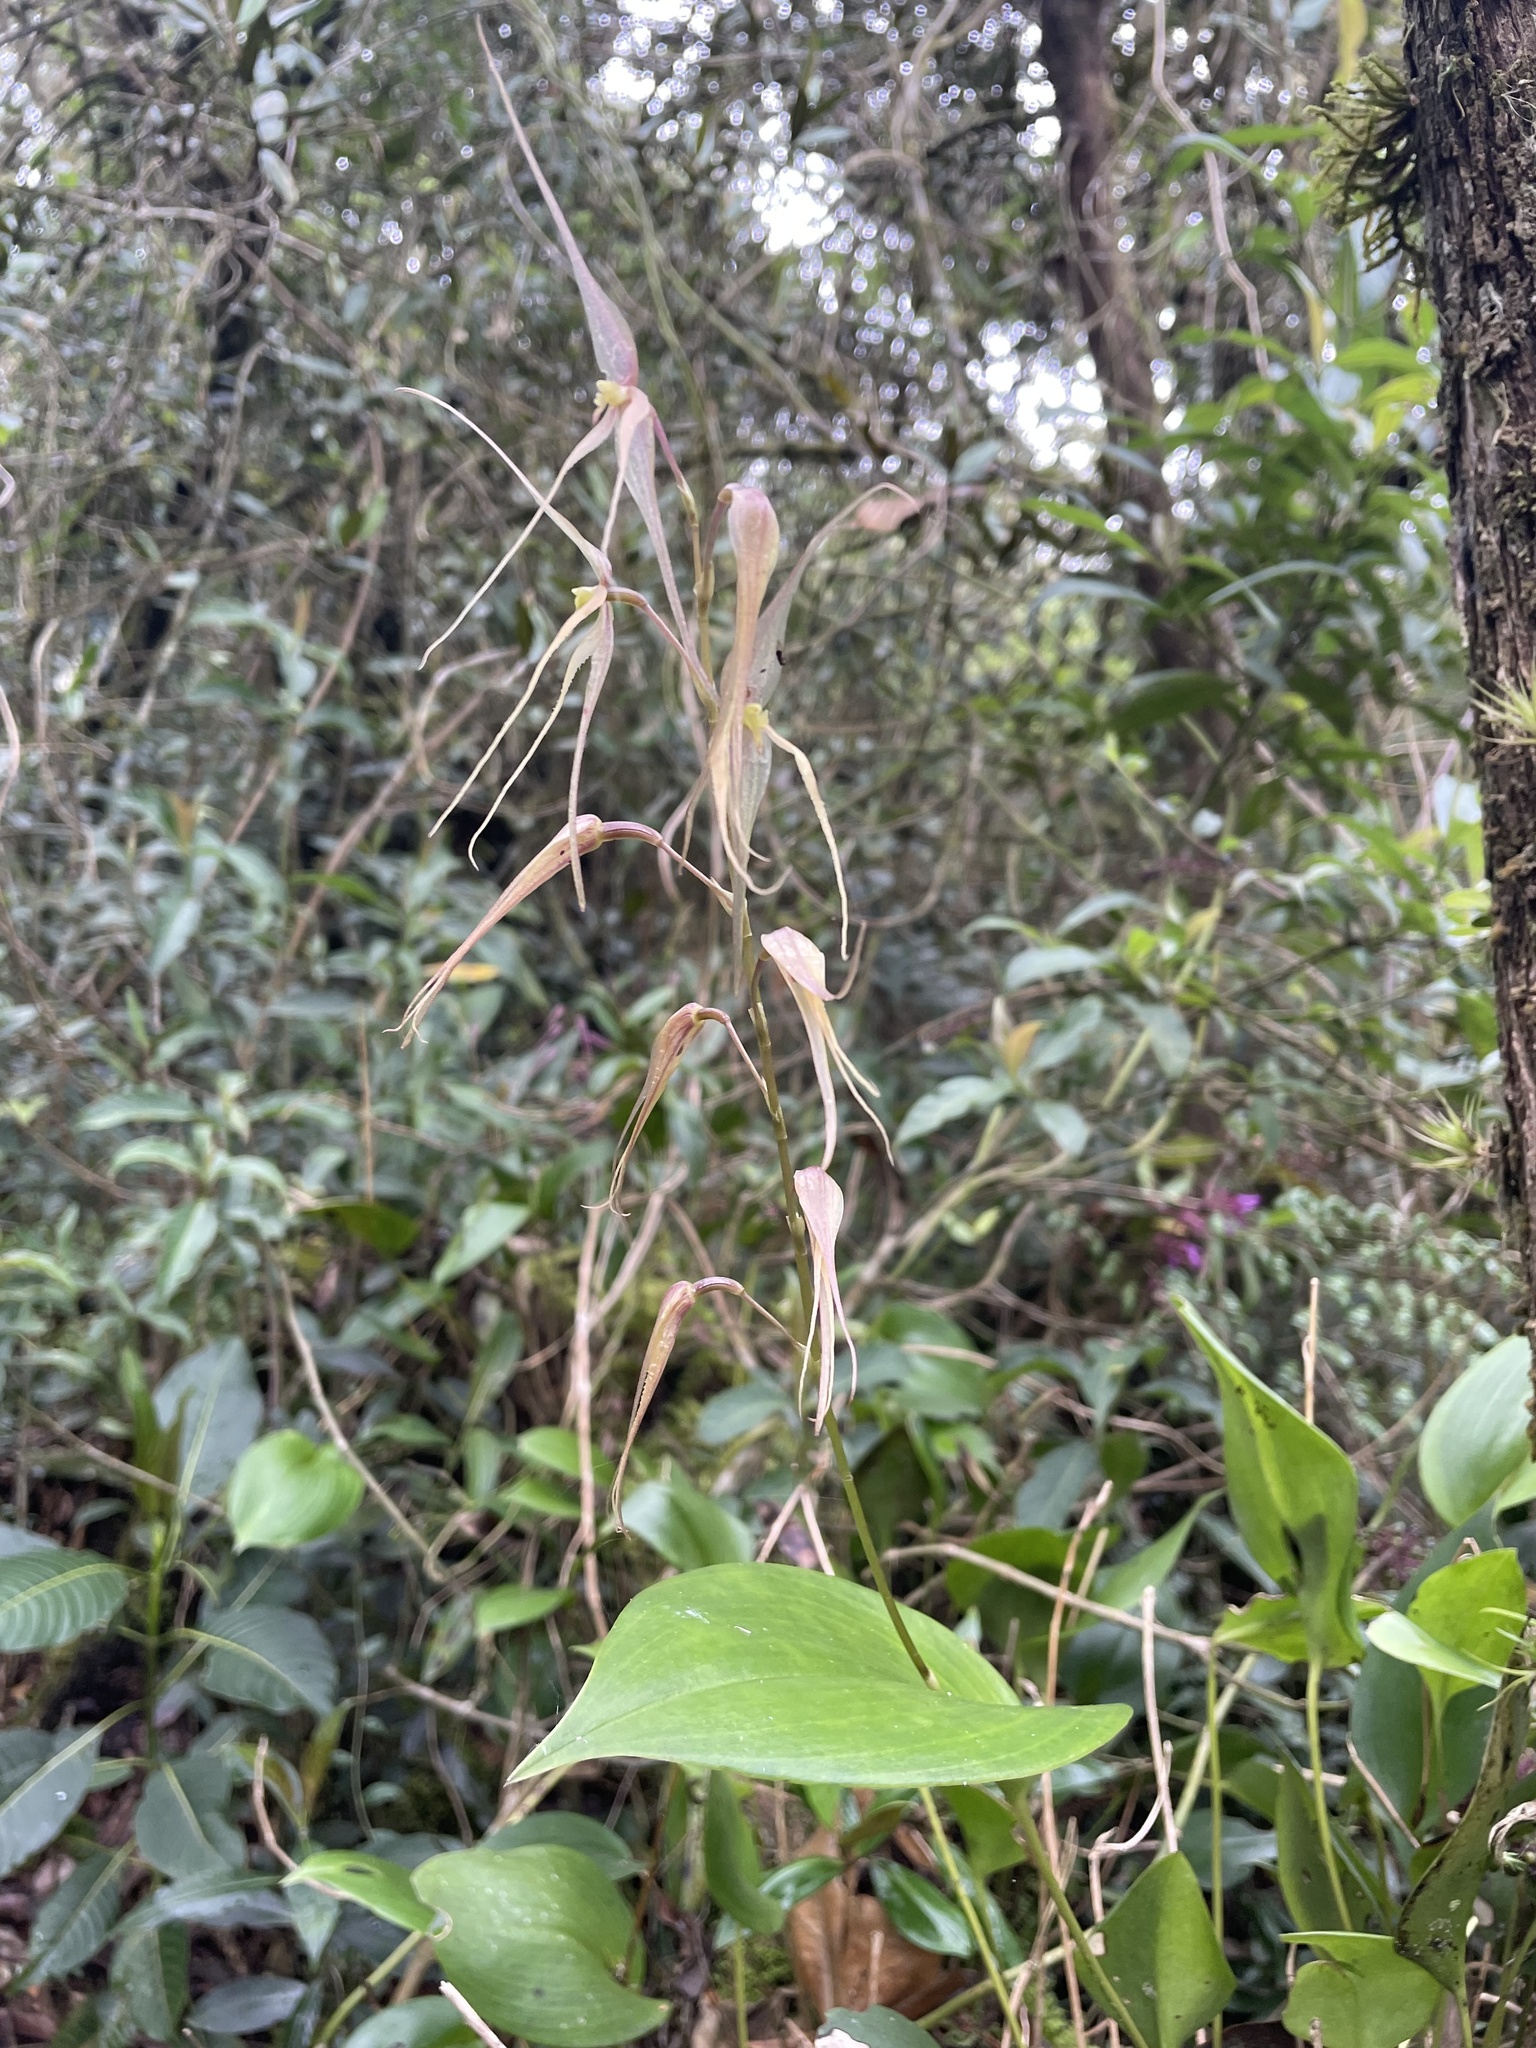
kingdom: Plantae
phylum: Tracheophyta
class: Liliopsida
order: Asparagales
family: Orchidaceae
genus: Pleurothallis
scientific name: Pleurothallis phalangifera
